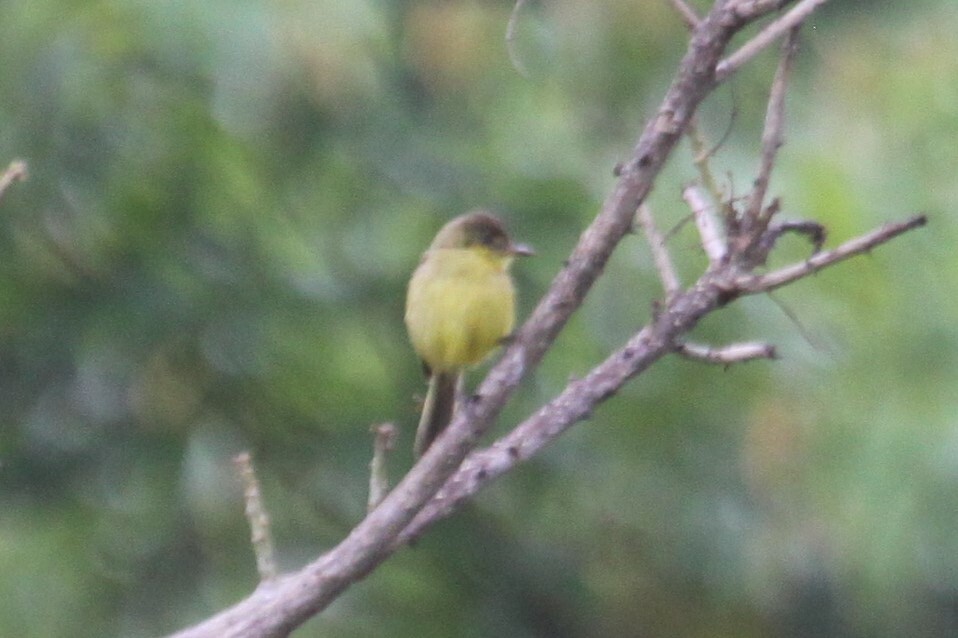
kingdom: Animalia
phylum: Chordata
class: Aves
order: Passeriformes
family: Acrocephalidae
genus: Iduna
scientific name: Iduna natalensis
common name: African yellow warbler
